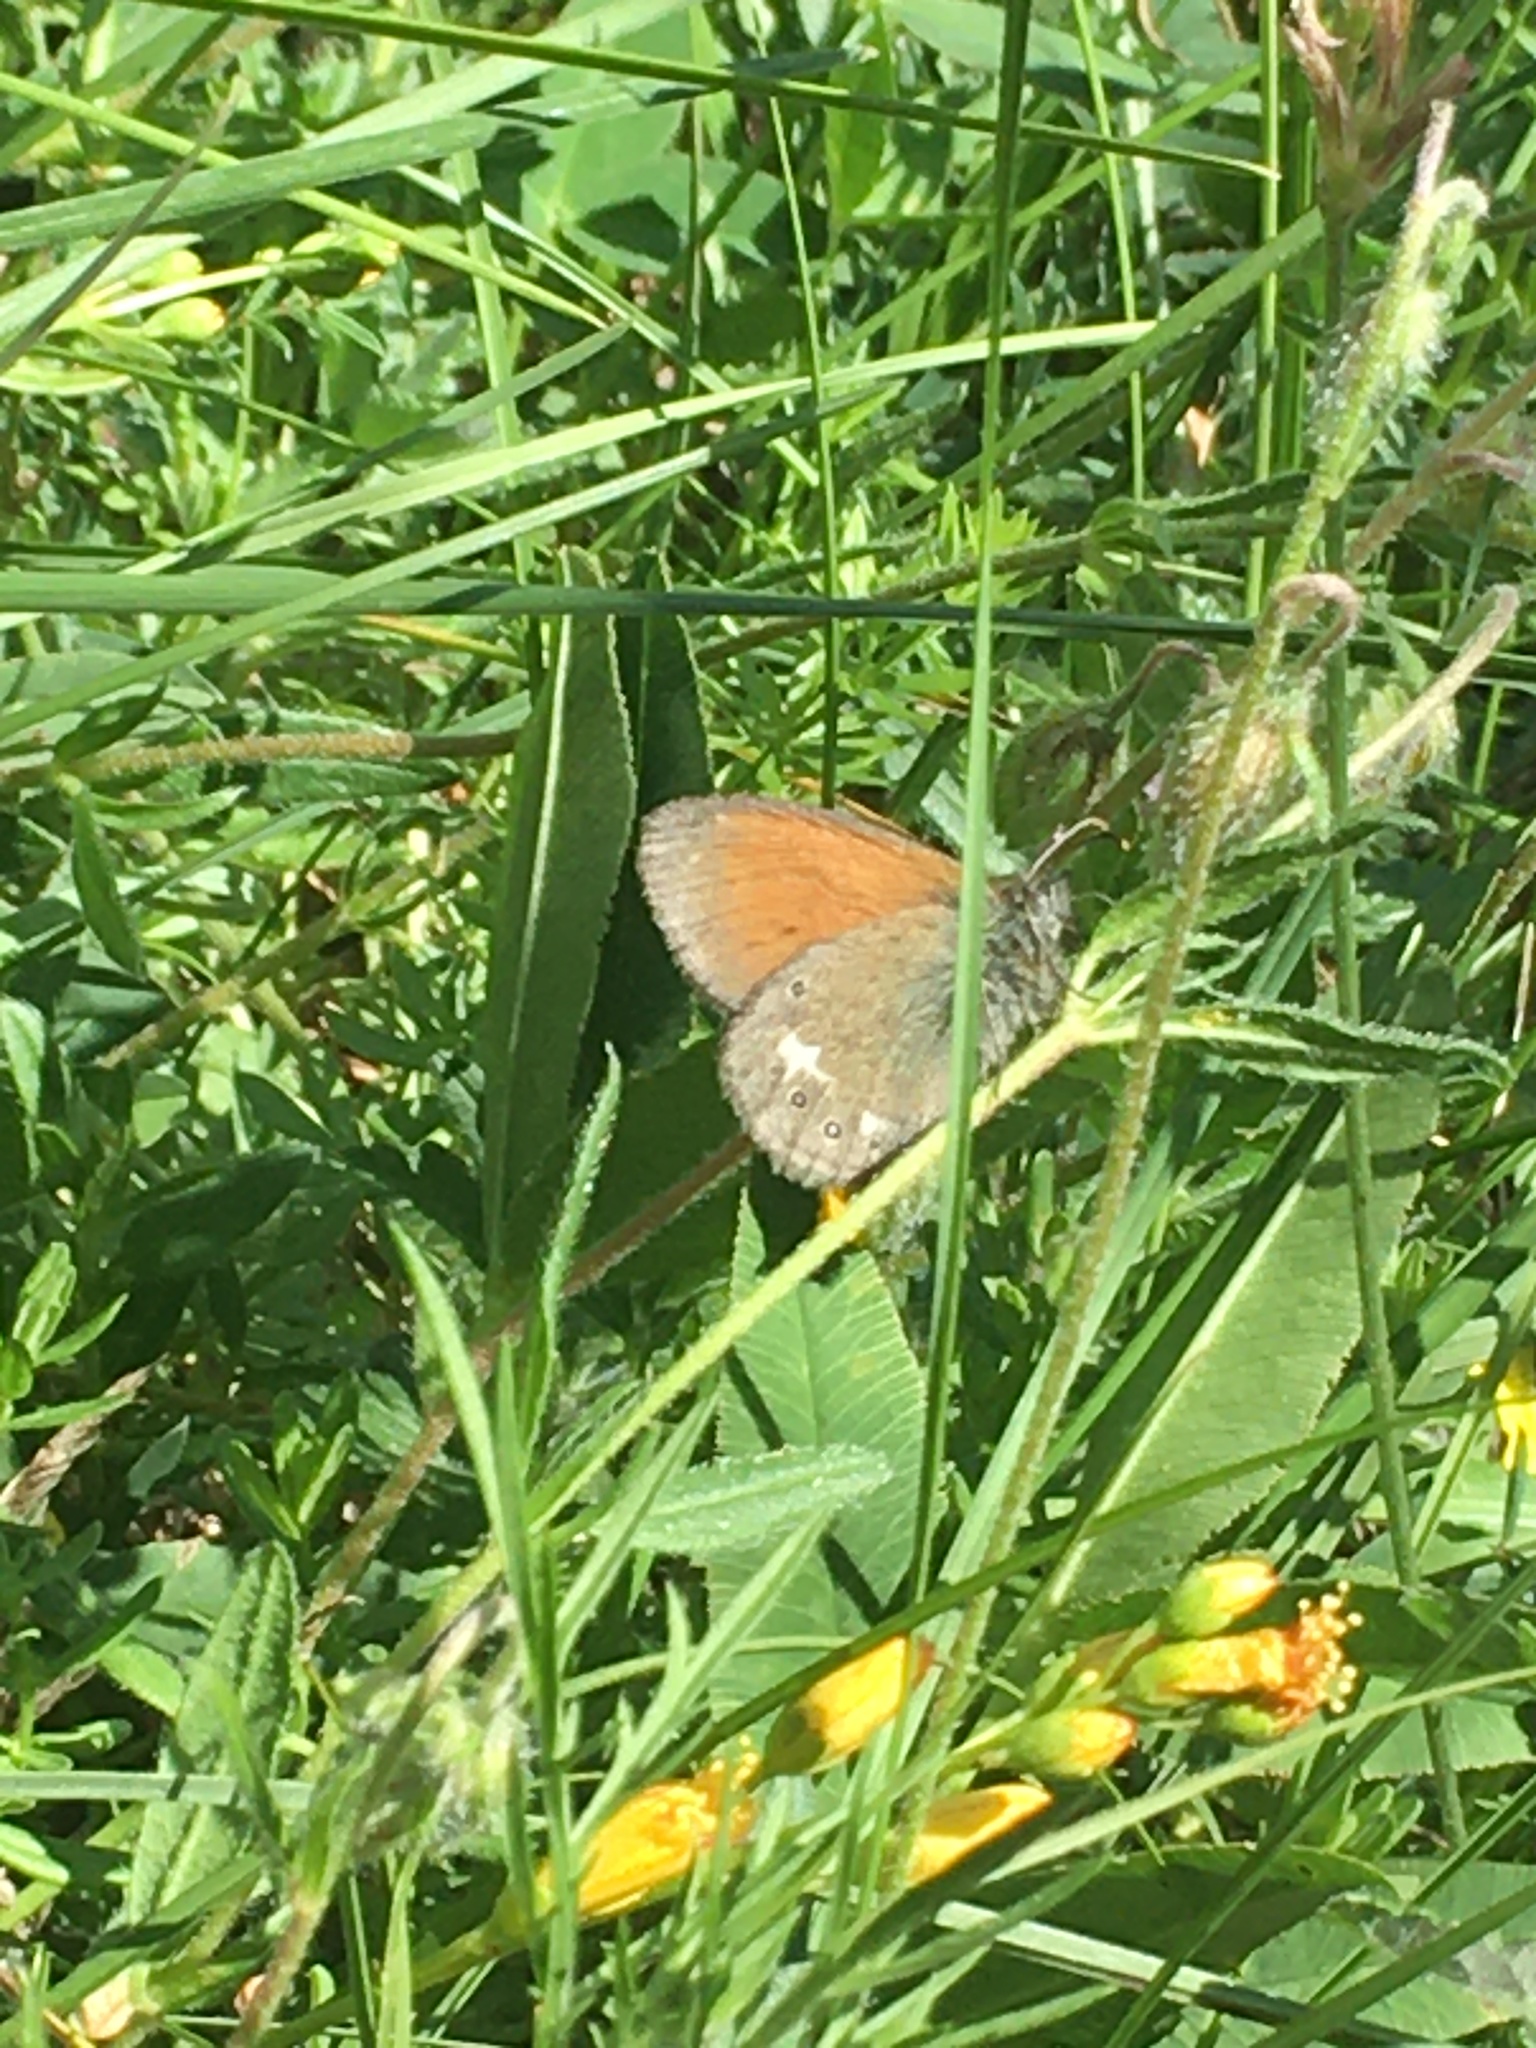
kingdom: Animalia
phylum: Arthropoda
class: Insecta
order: Lepidoptera
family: Nymphalidae
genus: Coenonympha
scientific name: Coenonympha iphis
